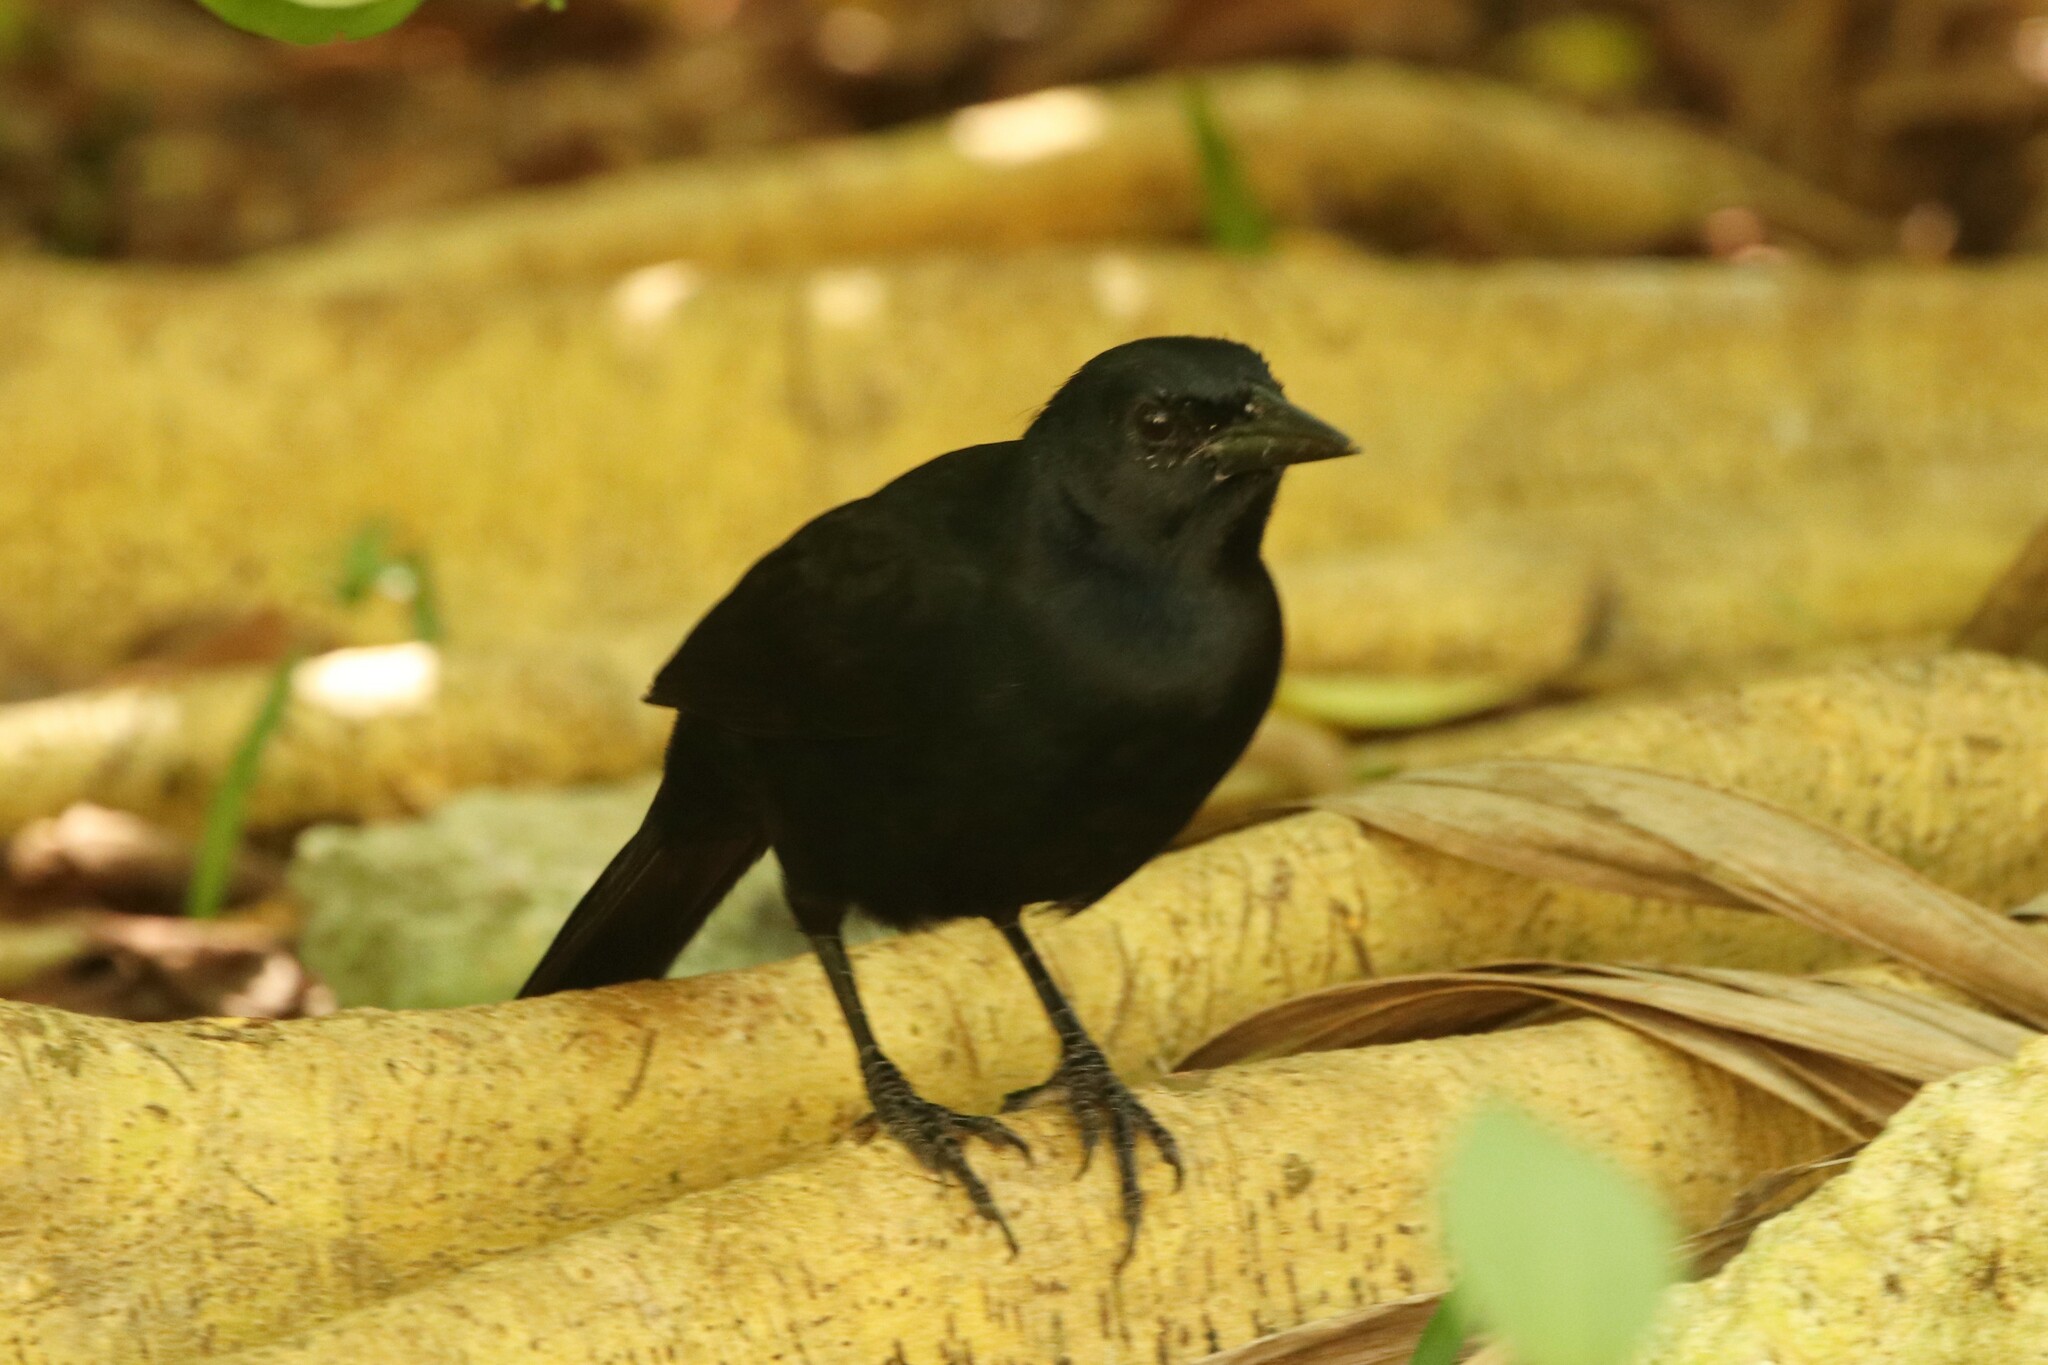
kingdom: Animalia
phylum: Chordata
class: Aves
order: Passeriformes
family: Icteridae
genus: Dives
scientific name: Dives dives
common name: Melodious blackbird
